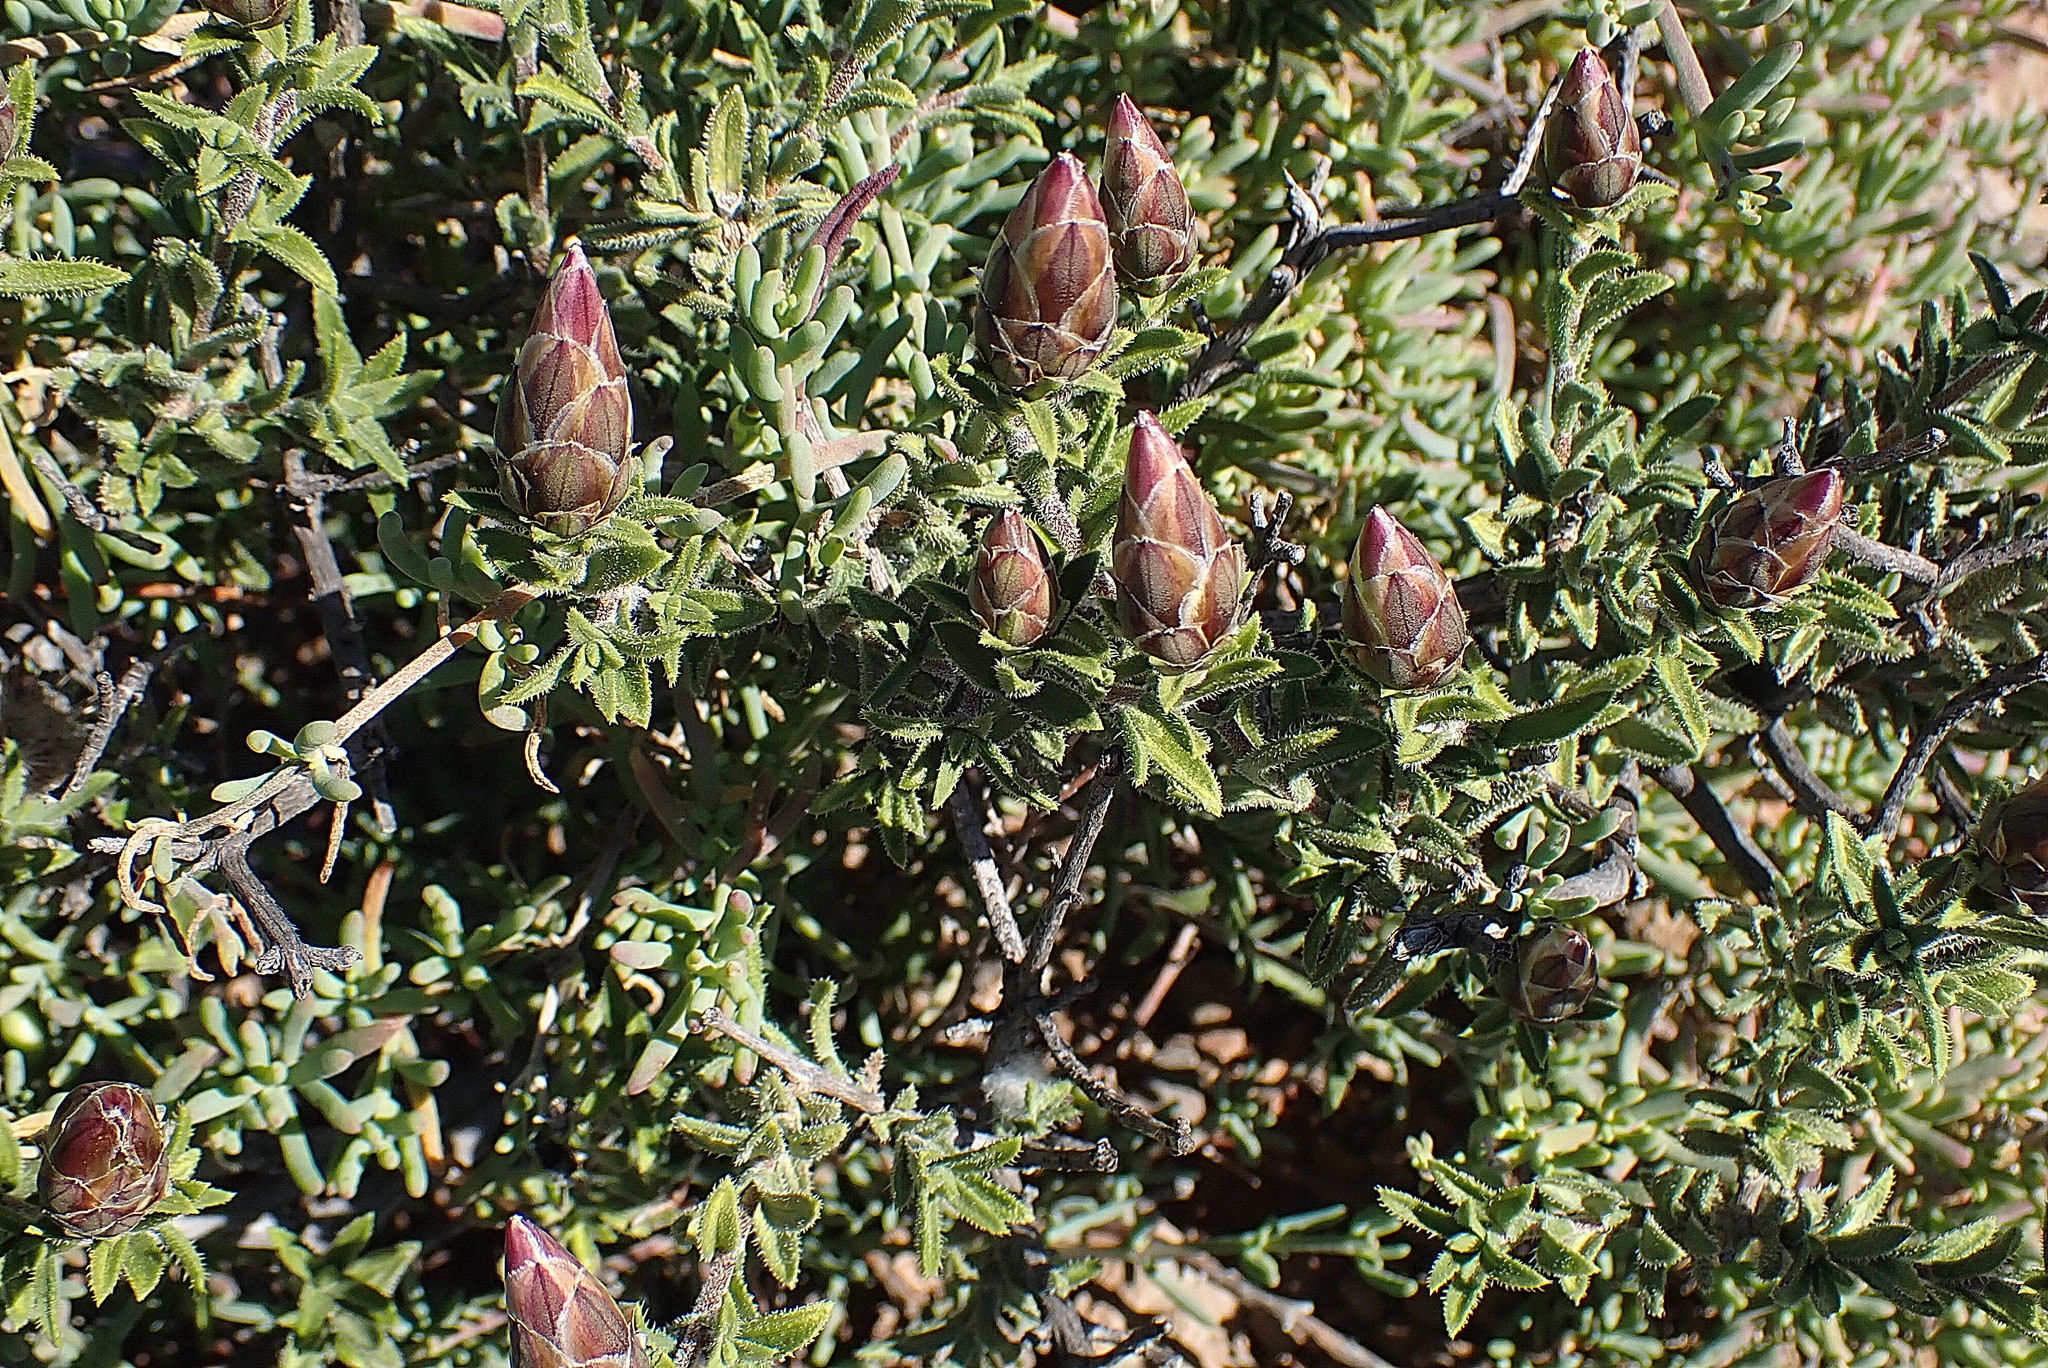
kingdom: Plantae
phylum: Tracheophyta
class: Magnoliopsida
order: Asterales
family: Asteraceae
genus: Pteronia
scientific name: Pteronia hirsuta
